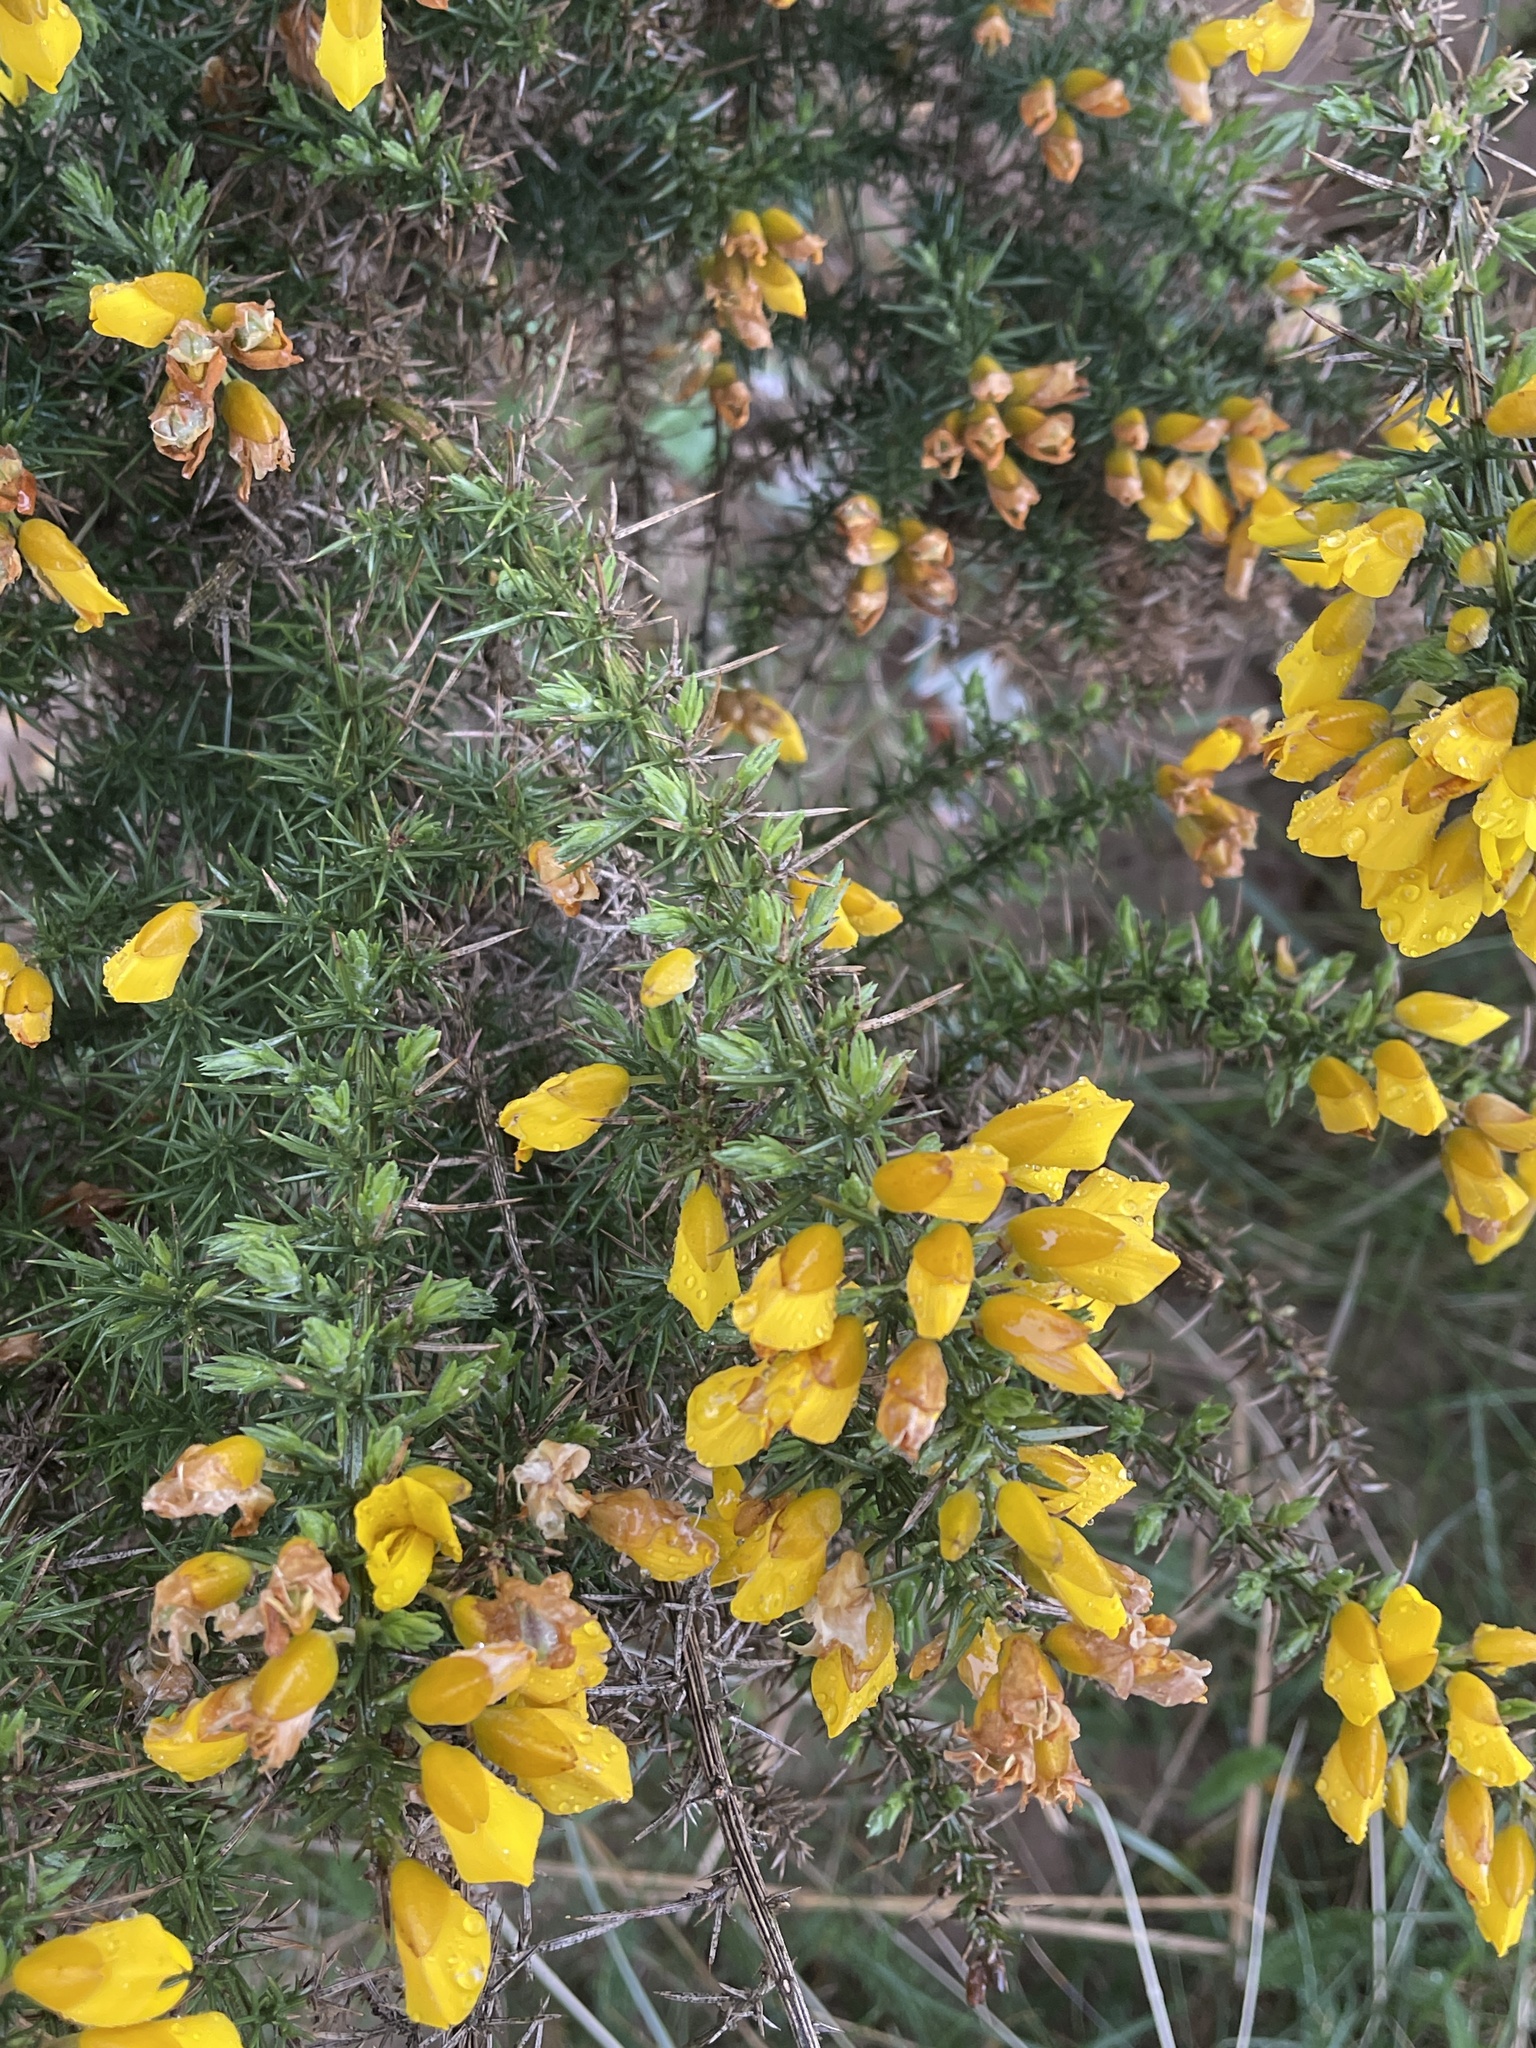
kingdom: Plantae
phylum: Tracheophyta
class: Magnoliopsida
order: Fabales
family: Fabaceae
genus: Ulex
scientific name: Ulex europaeus
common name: Common gorse
